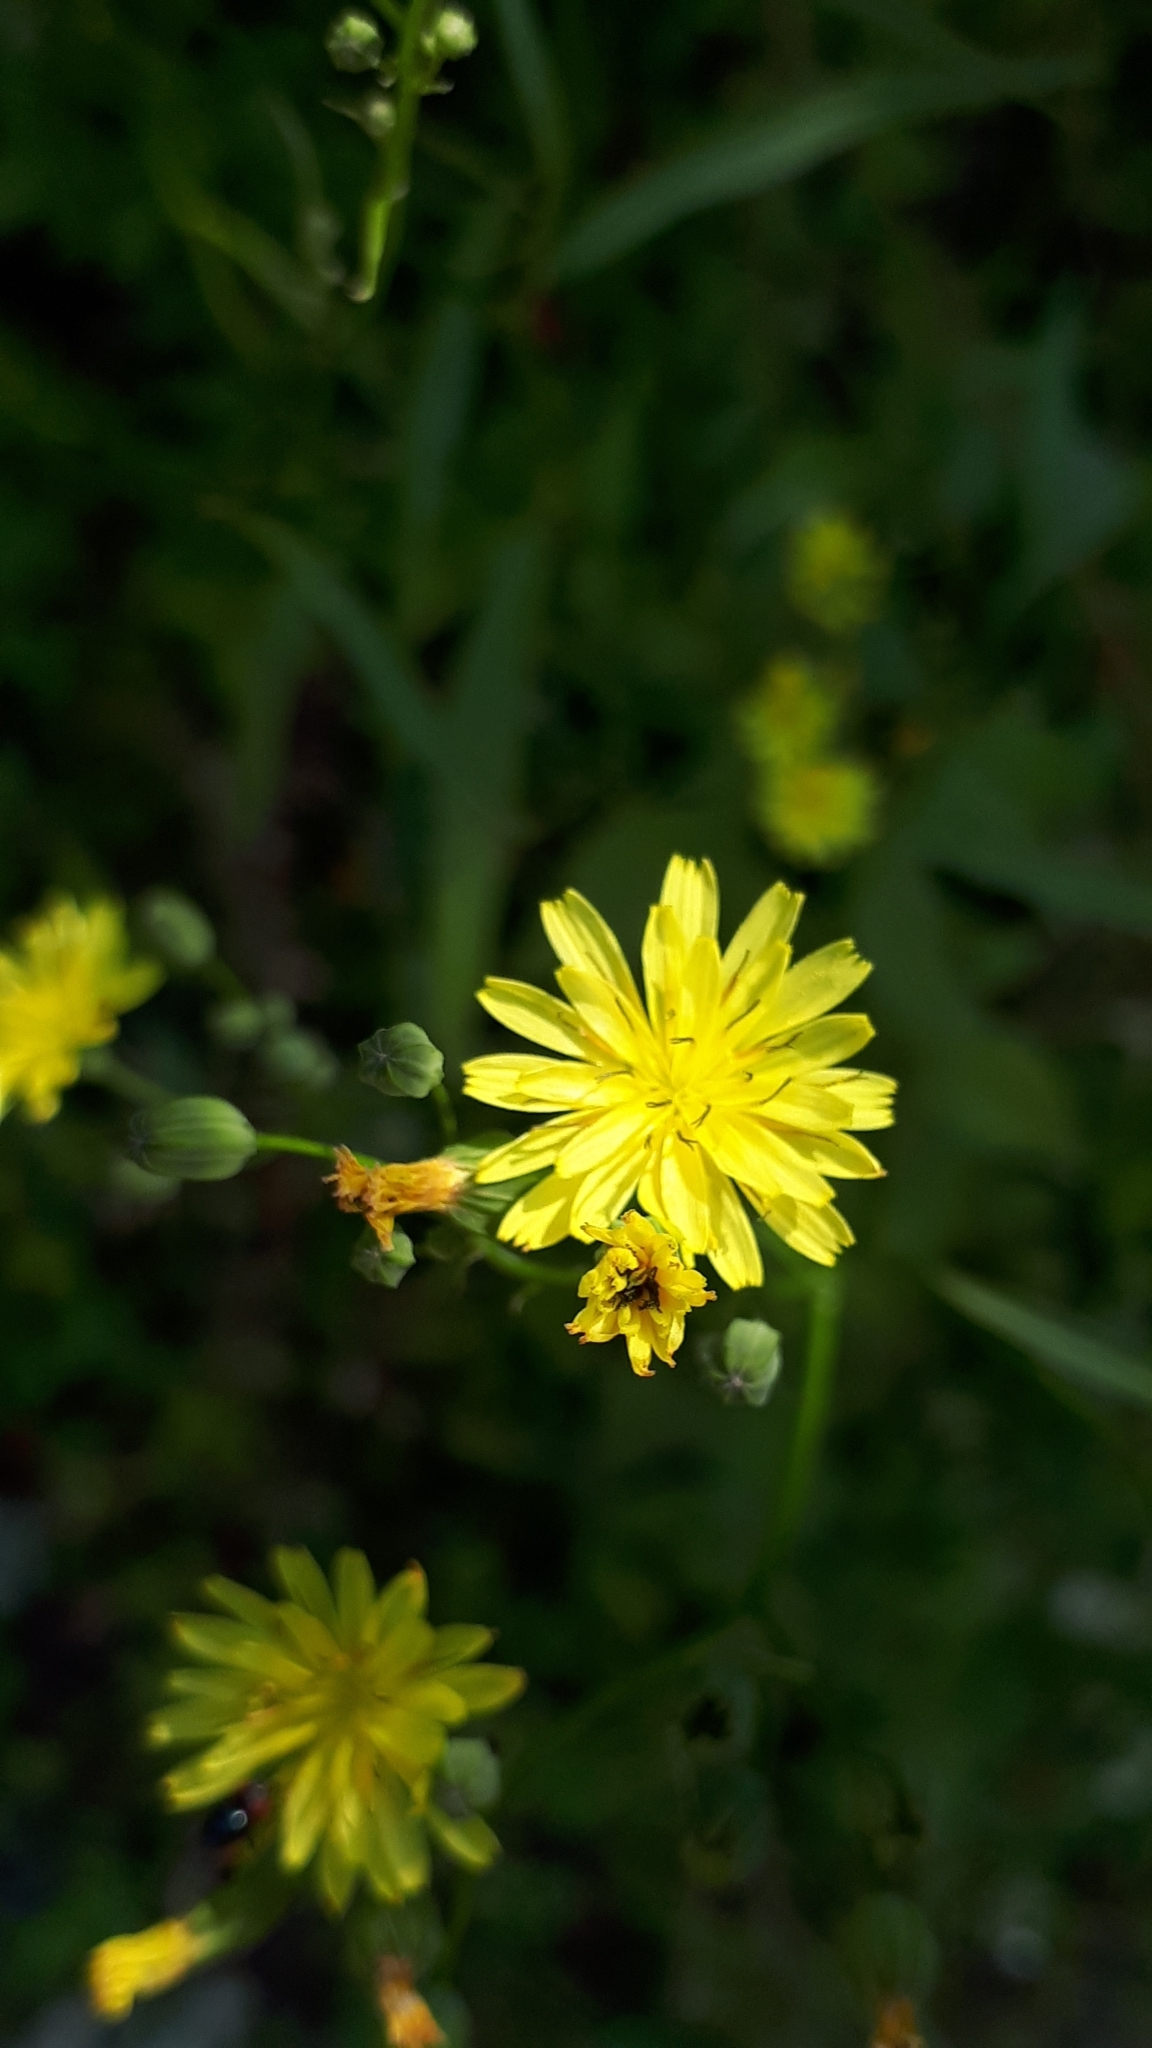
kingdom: Plantae
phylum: Tracheophyta
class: Magnoliopsida
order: Asterales
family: Asteraceae
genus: Lapsana
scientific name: Lapsana communis
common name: Nipplewort
